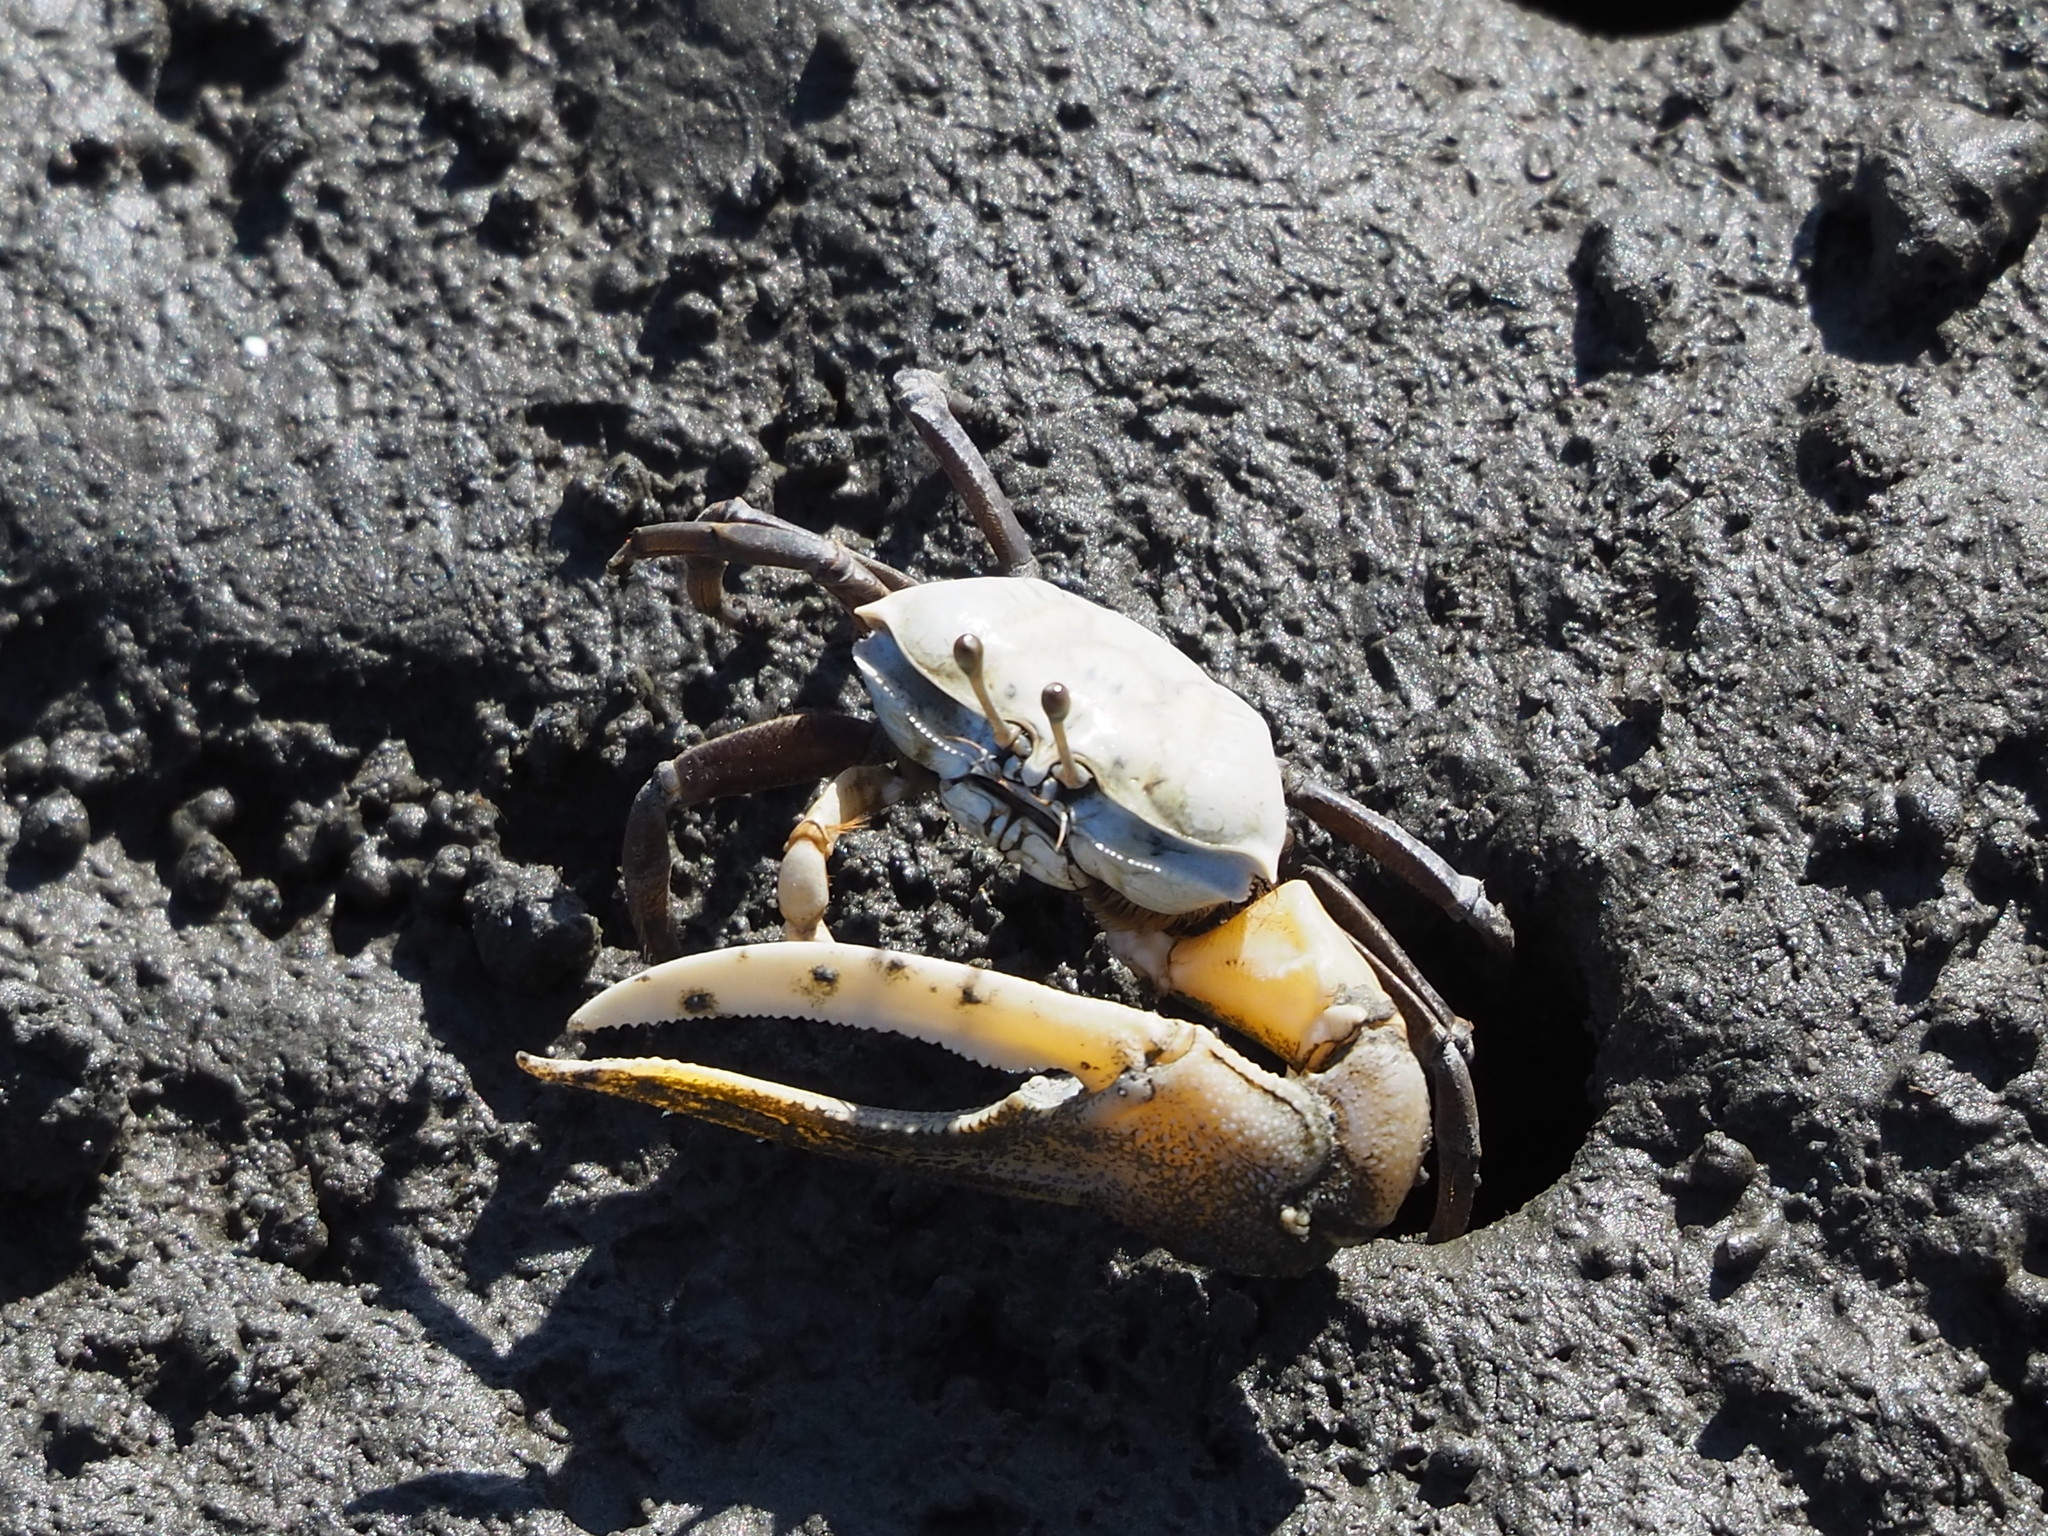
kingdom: Animalia
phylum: Arthropoda
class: Malacostraca
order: Decapoda
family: Ocypodidae
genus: Gelasimus
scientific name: Gelasimus borealis
